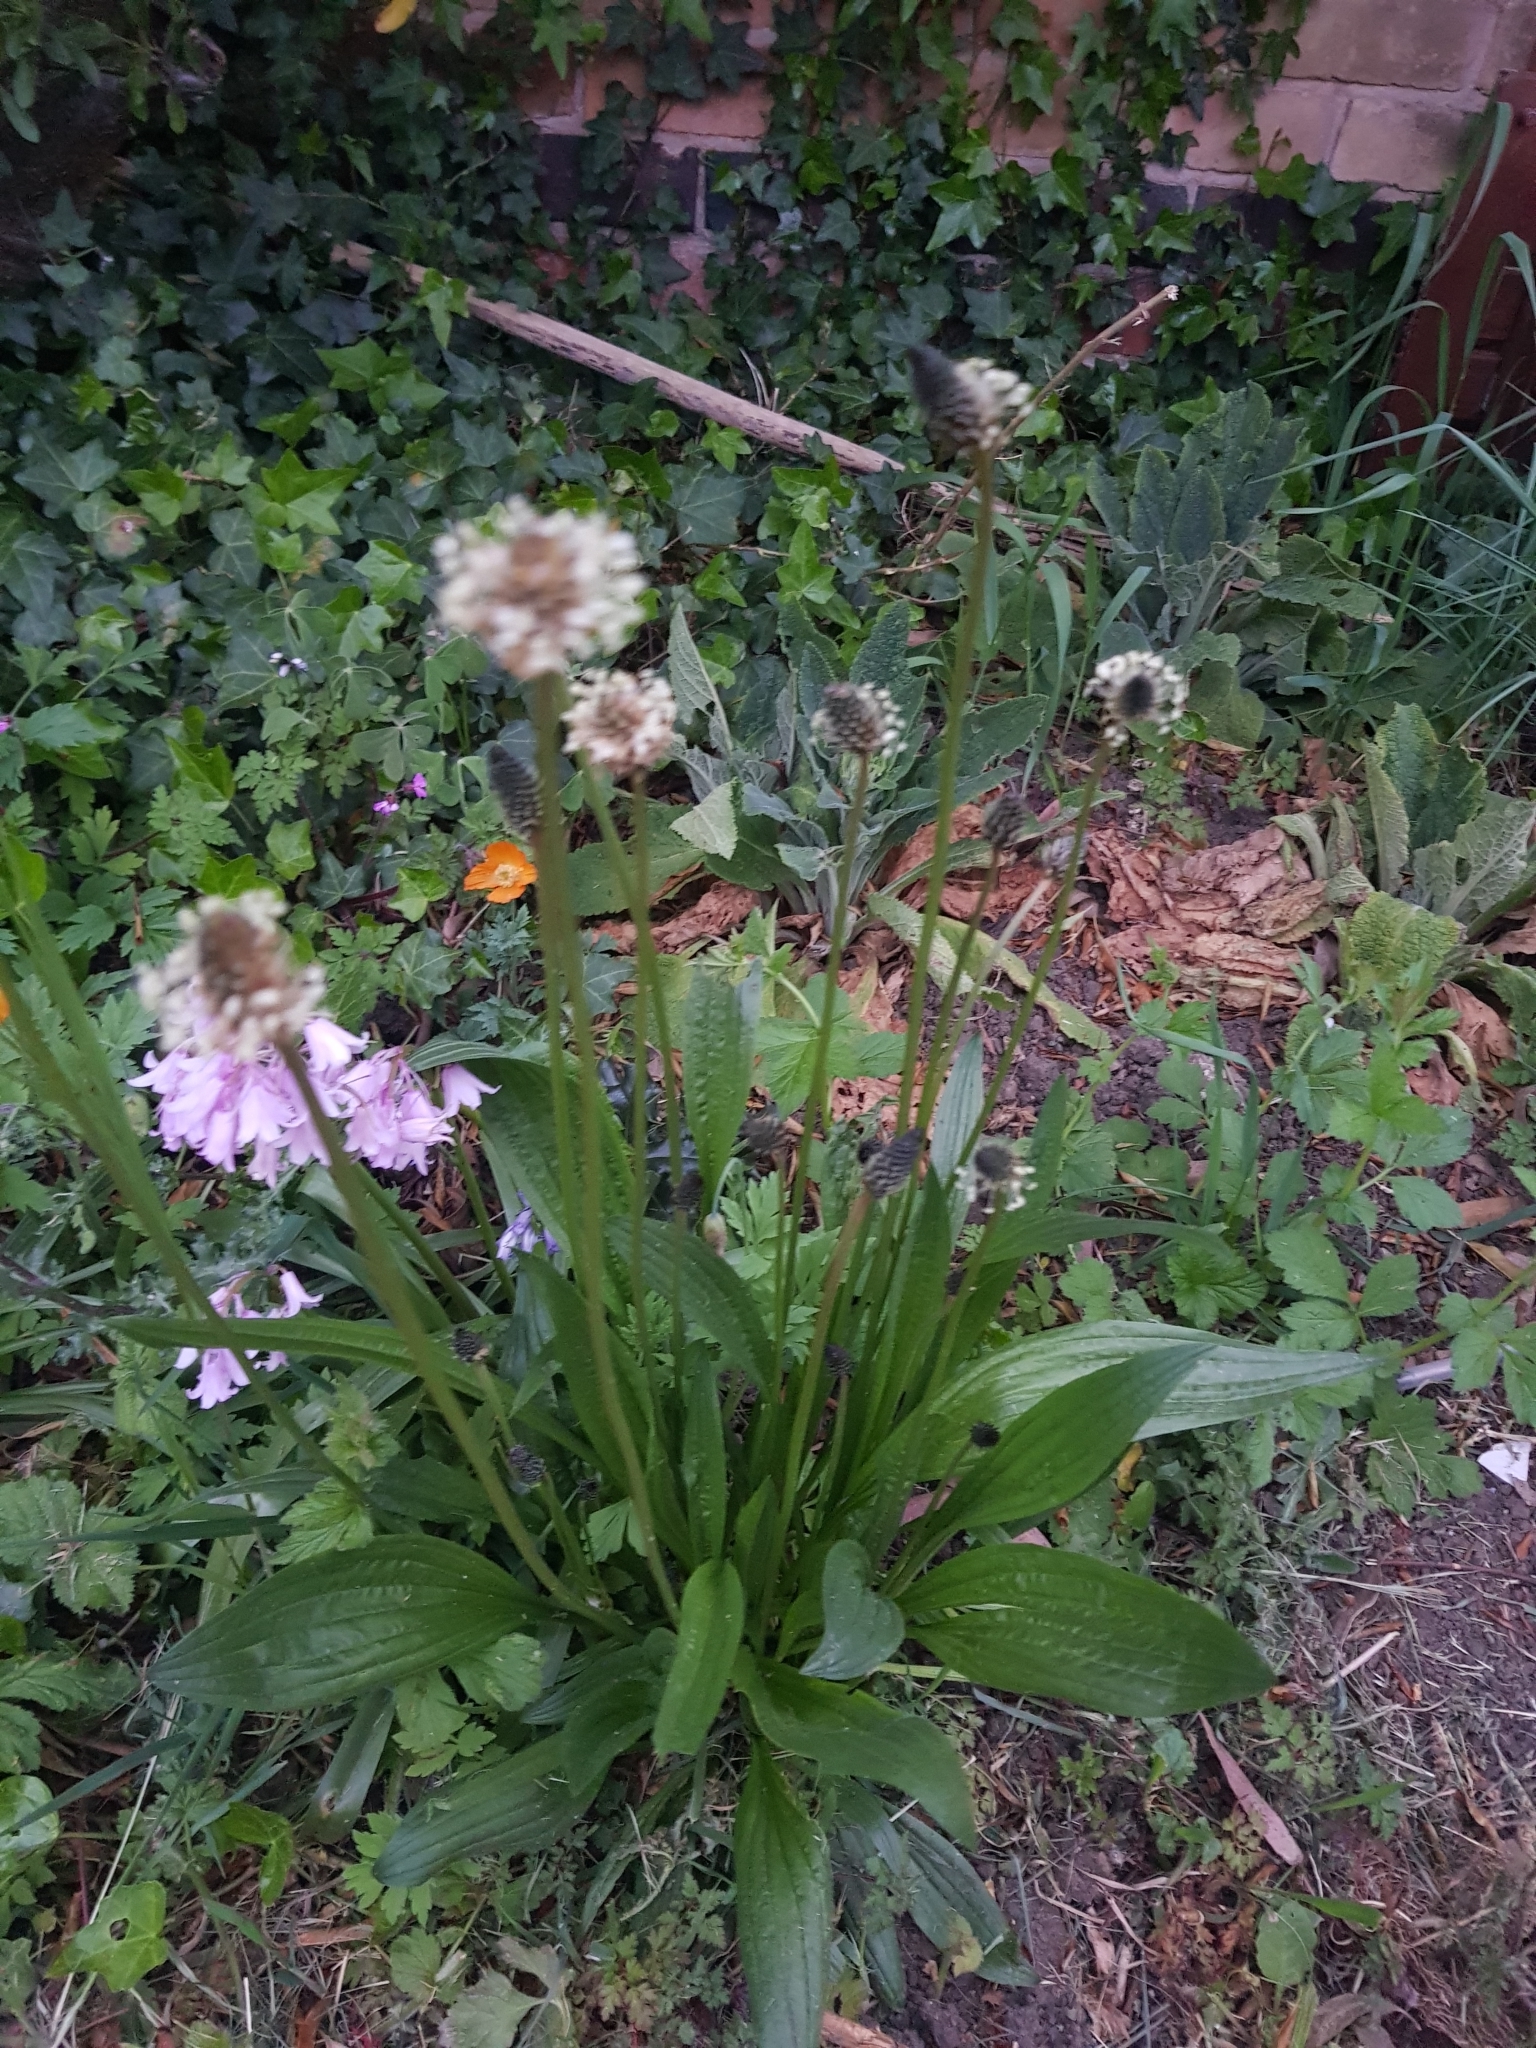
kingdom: Plantae
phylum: Tracheophyta
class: Magnoliopsida
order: Lamiales
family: Plantaginaceae
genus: Plantago
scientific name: Plantago lanceolata
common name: Ribwort plantain
